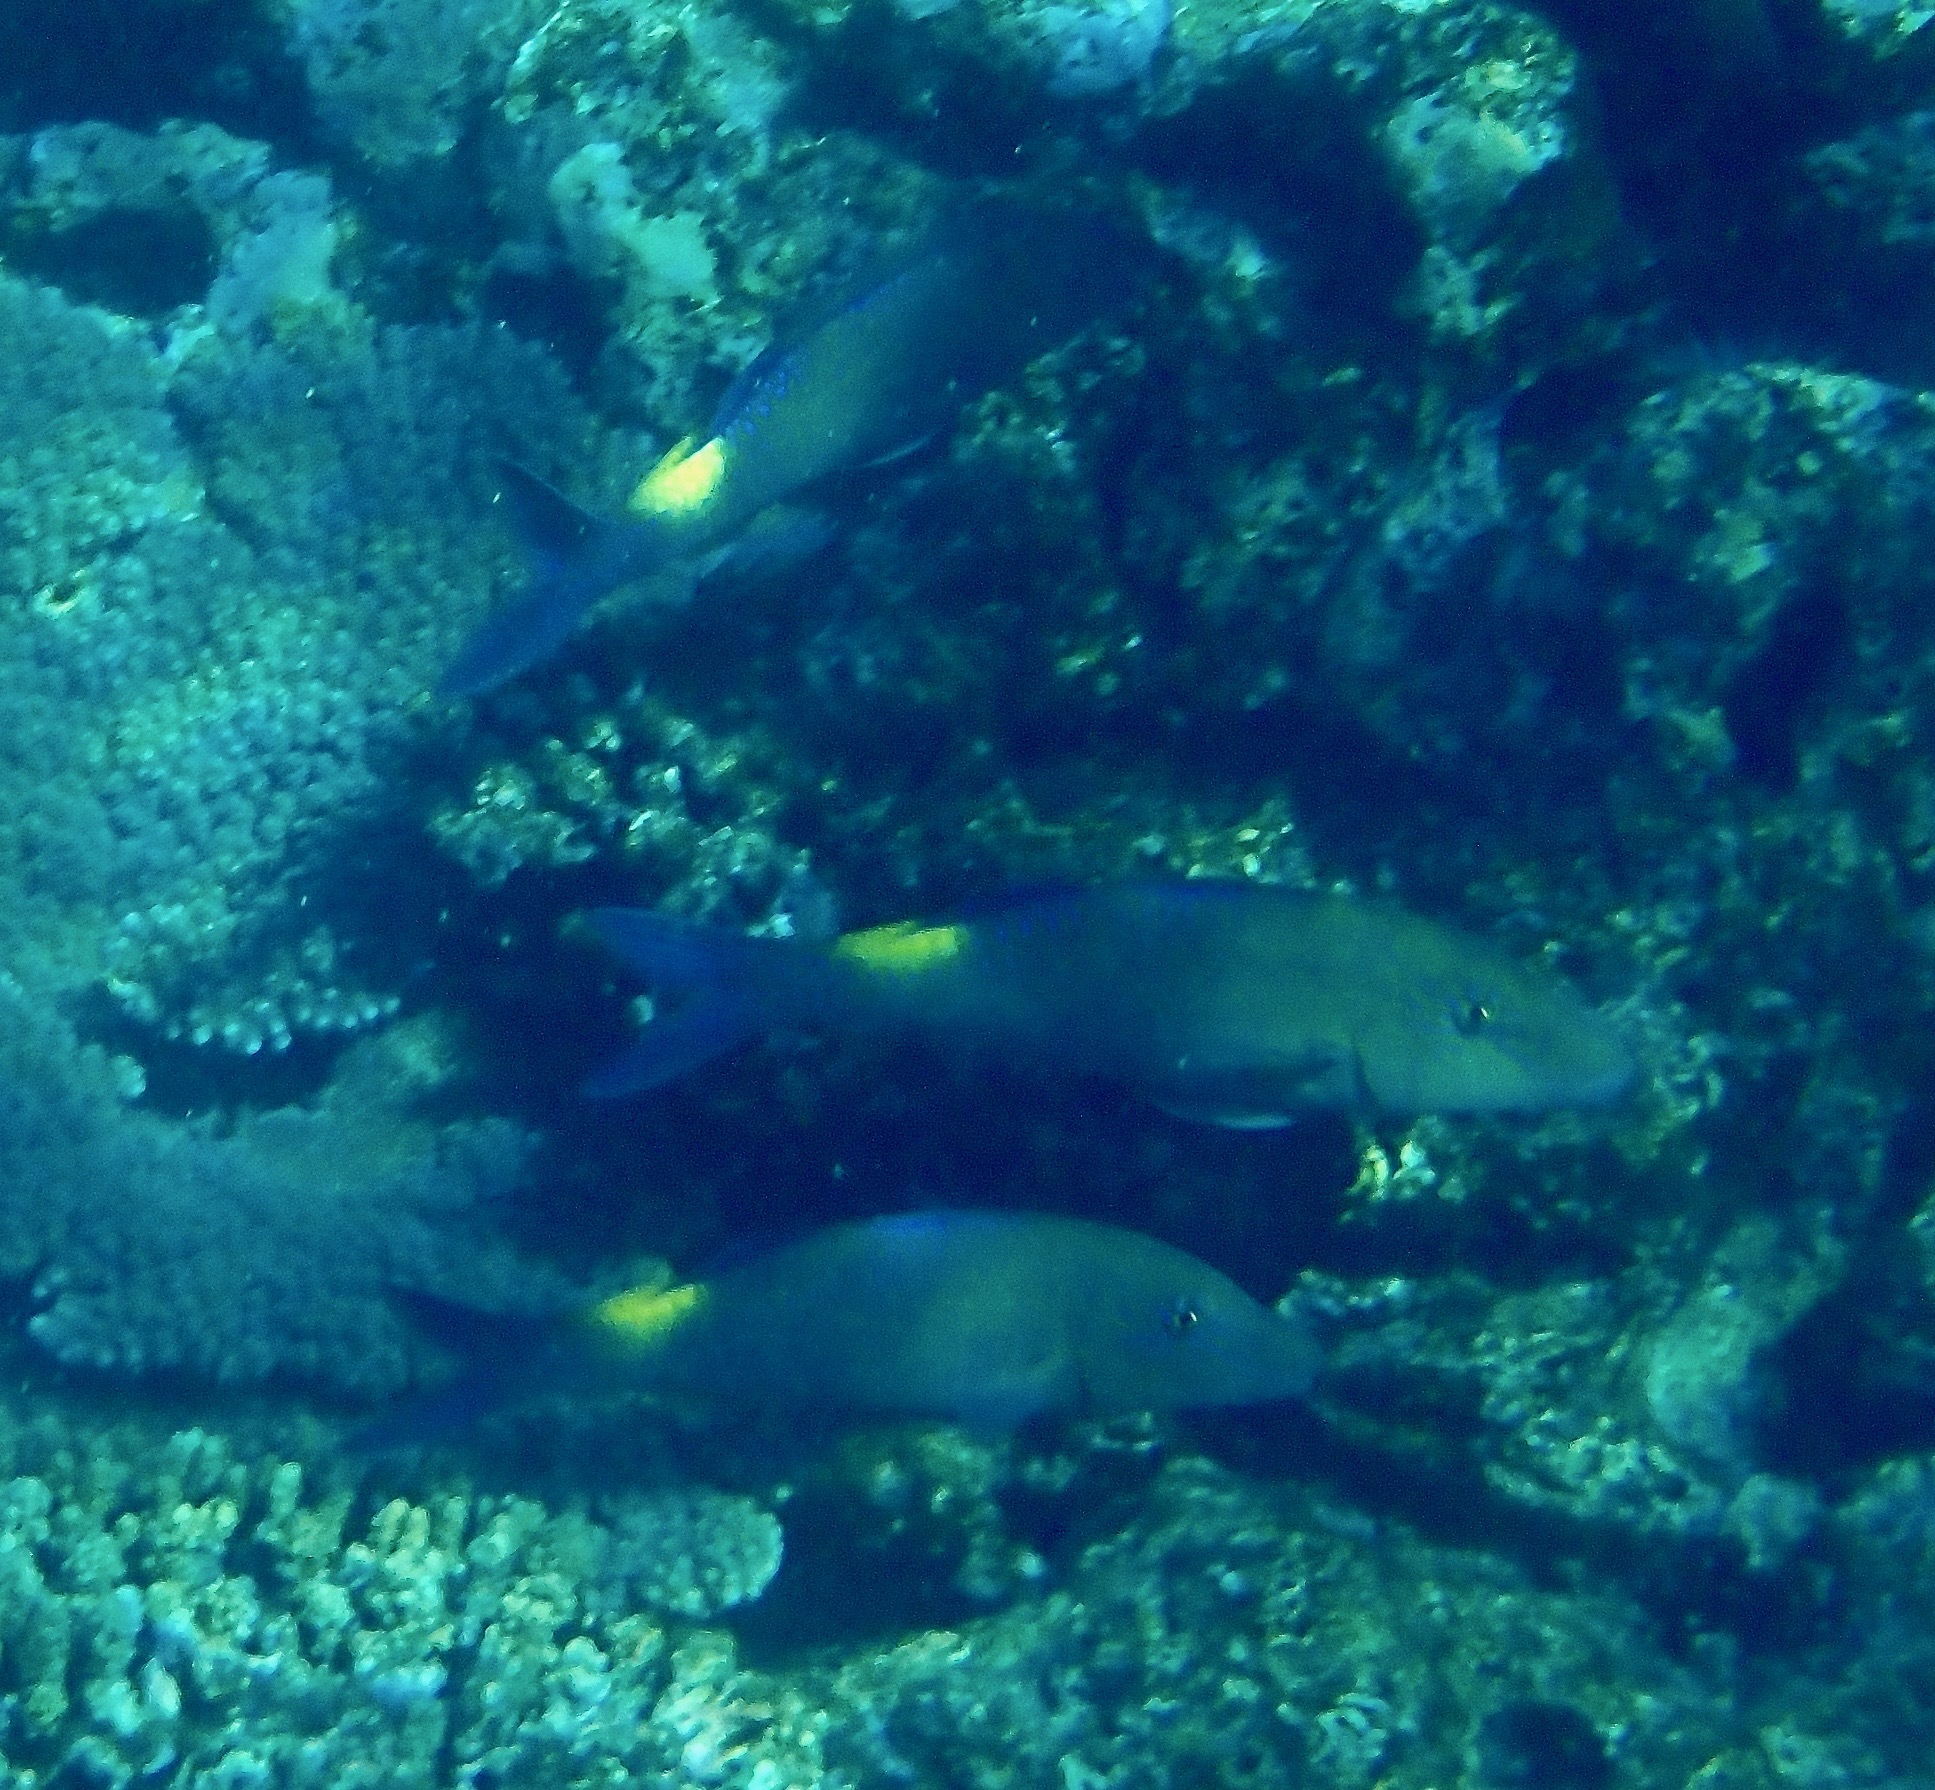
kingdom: Animalia
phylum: Chordata
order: Perciformes
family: Mullidae
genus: Parupeneus
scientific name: Parupeneus cyclostomus
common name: Goldsaddle goatfish
